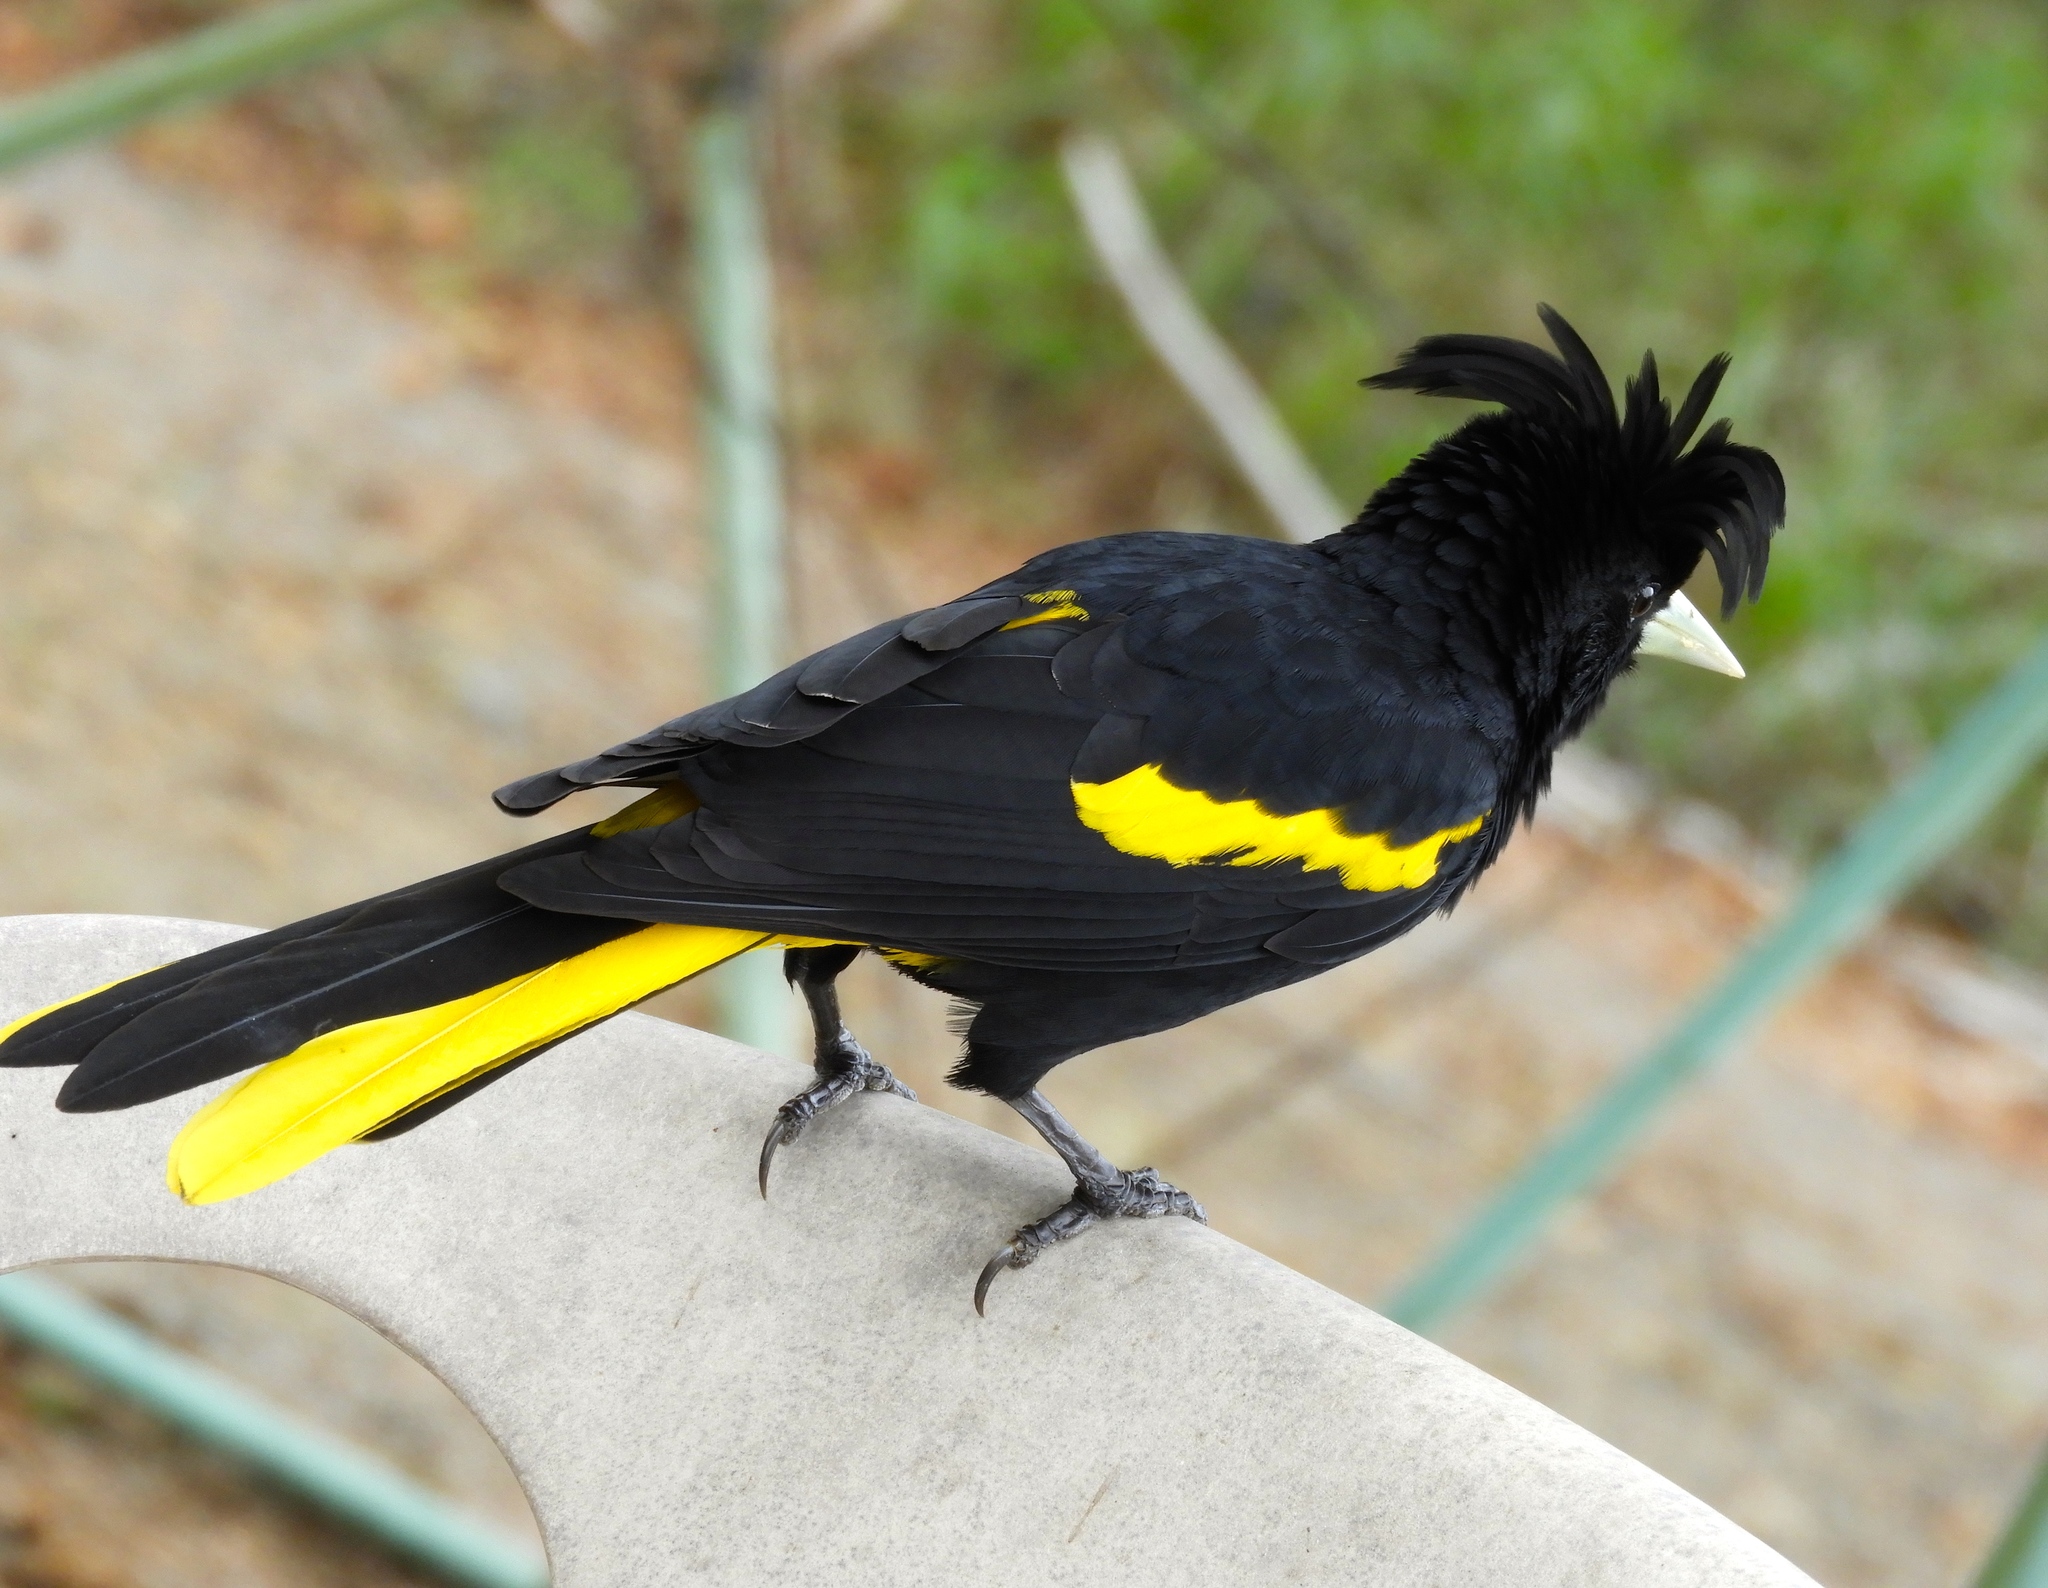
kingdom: Animalia
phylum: Chordata
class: Aves
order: Passeriformes
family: Icteridae
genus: Cacicus
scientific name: Cacicus melanicterus
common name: Yellow-winged cacique
